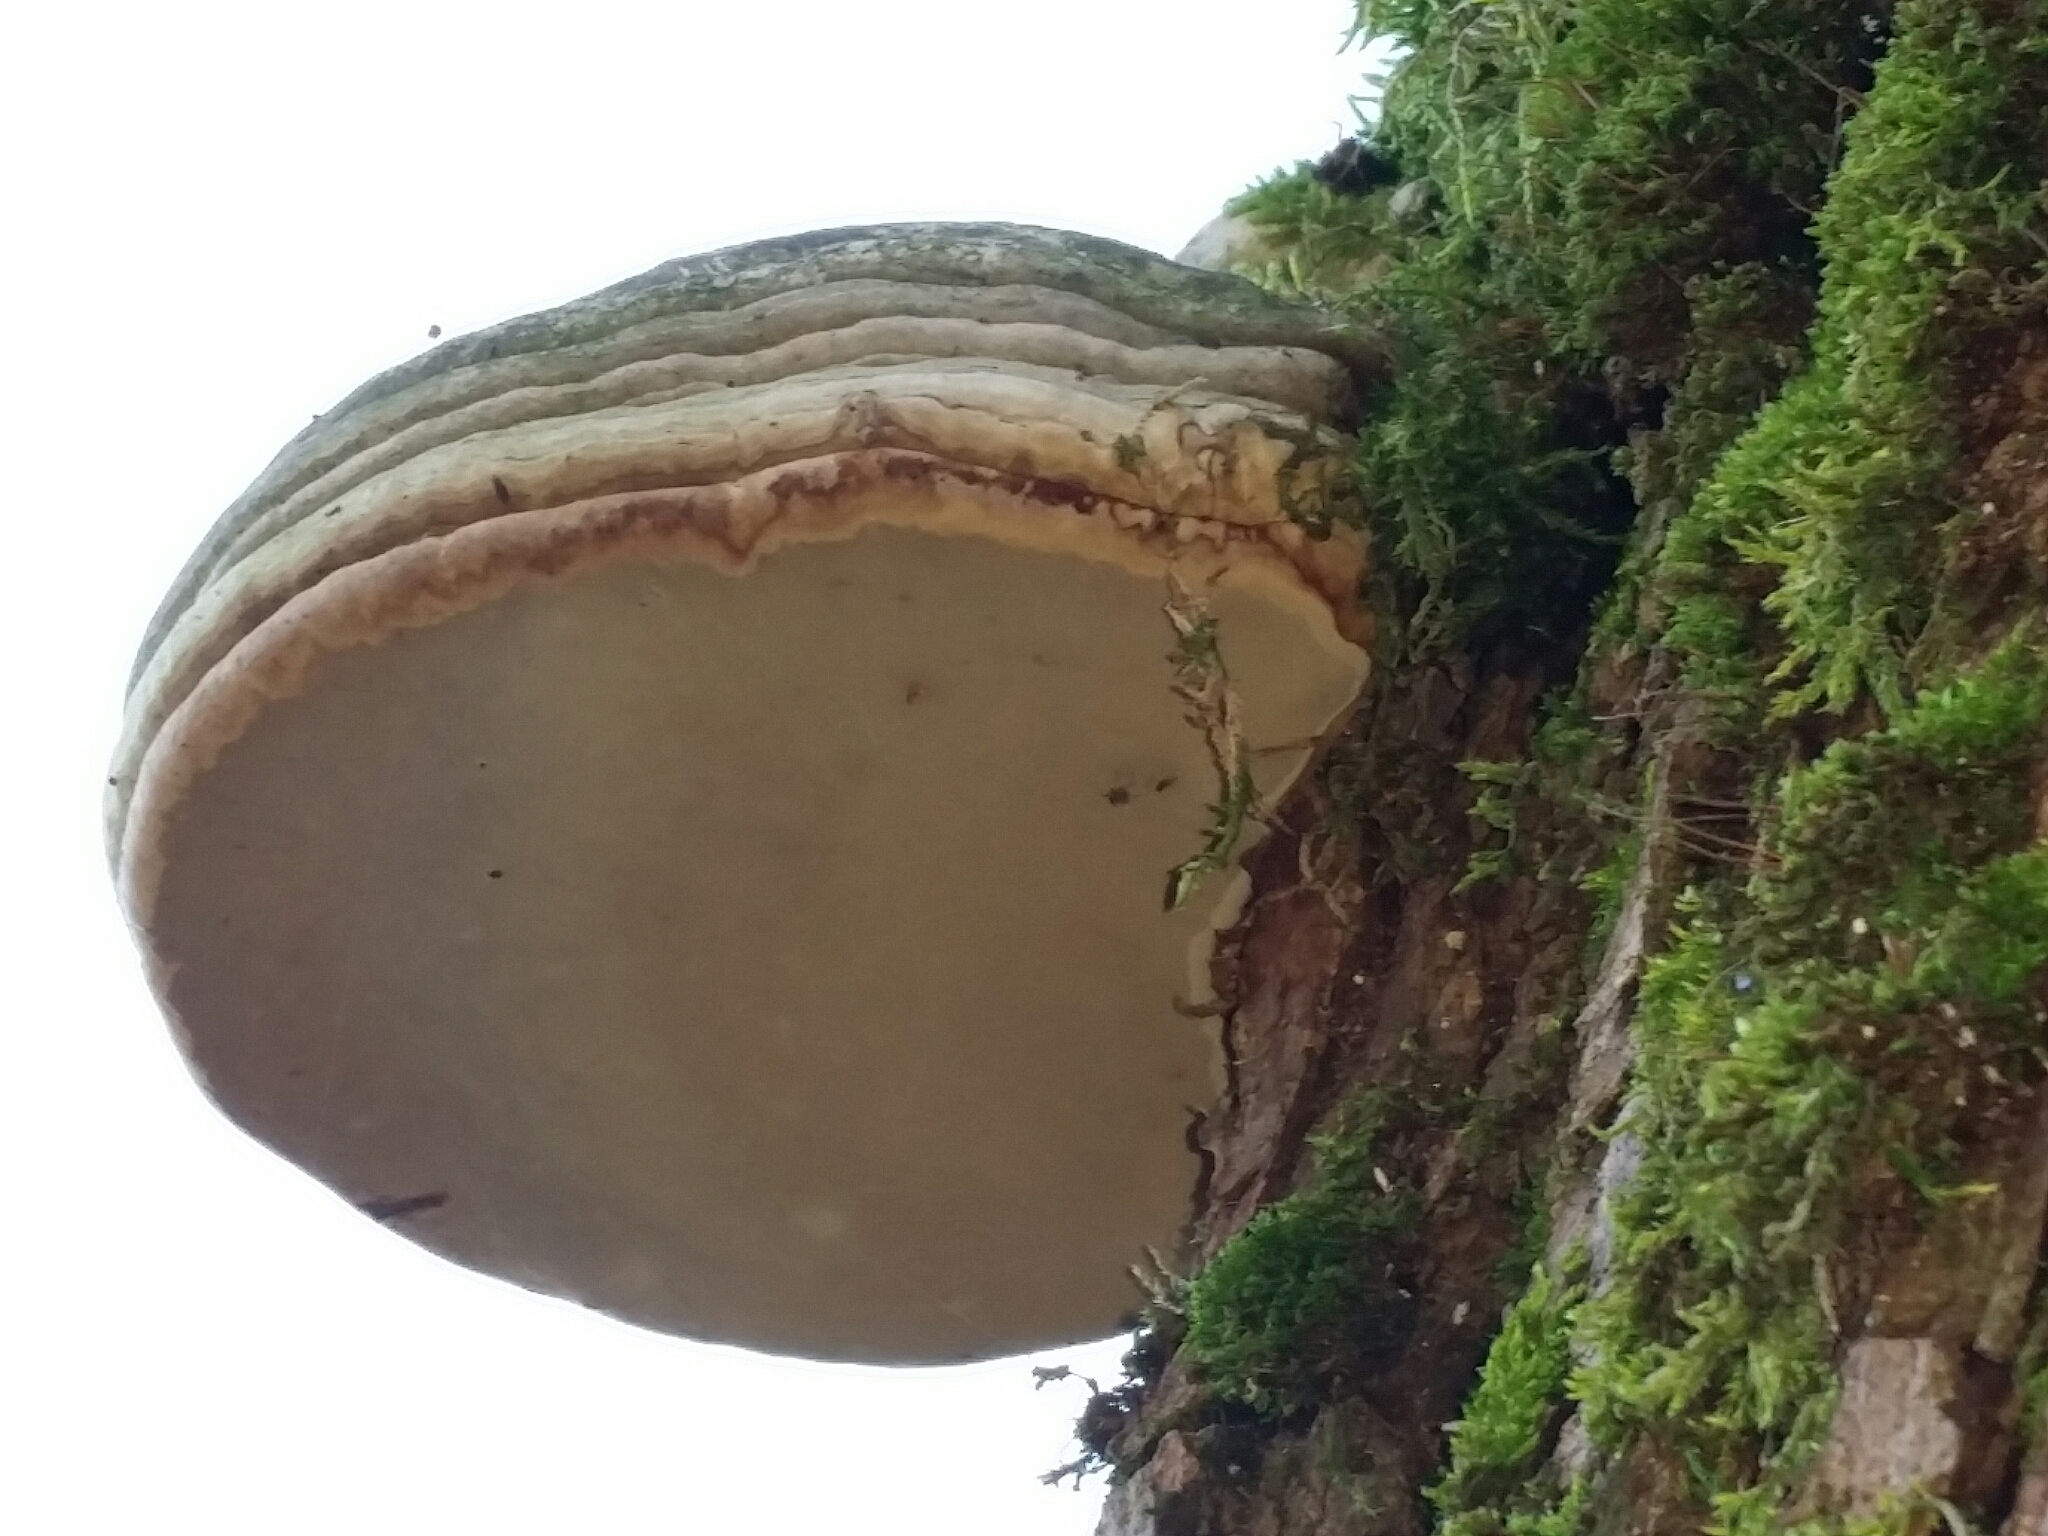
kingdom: Fungi
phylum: Basidiomycota
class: Agaricomycetes
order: Polyporales
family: Polyporaceae
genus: Fomes
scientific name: Fomes fomentarius
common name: Hoof fungus
